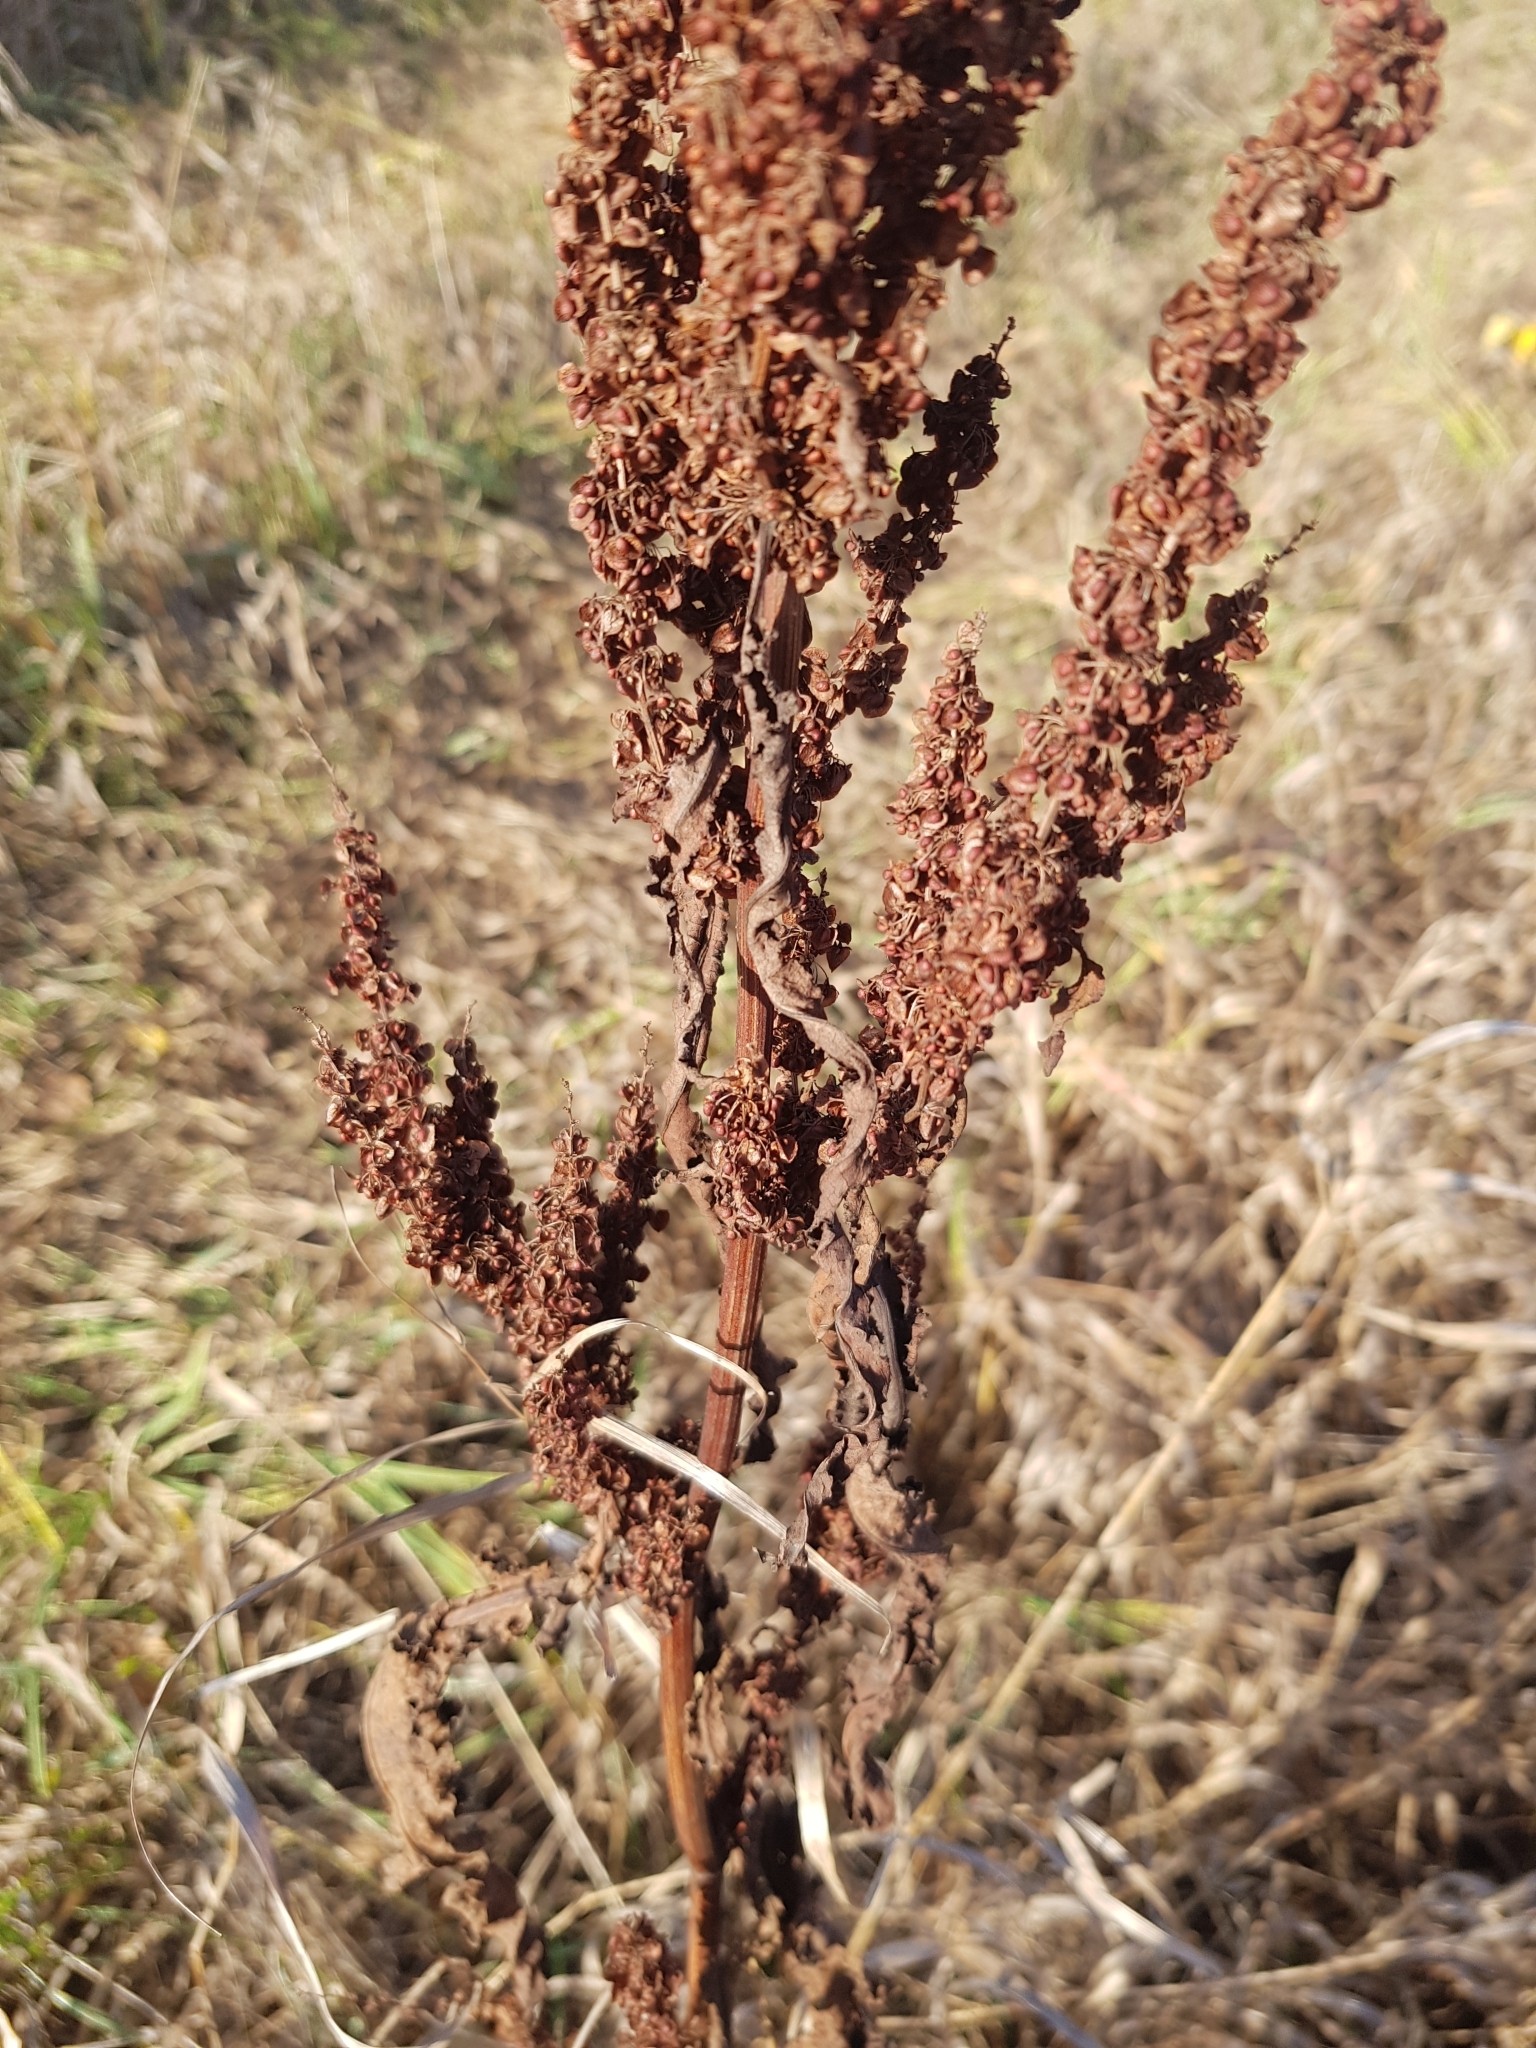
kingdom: Plantae
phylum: Tracheophyta
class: Magnoliopsida
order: Caryophyllales
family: Polygonaceae
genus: Rumex
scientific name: Rumex crispus
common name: Curled dock
